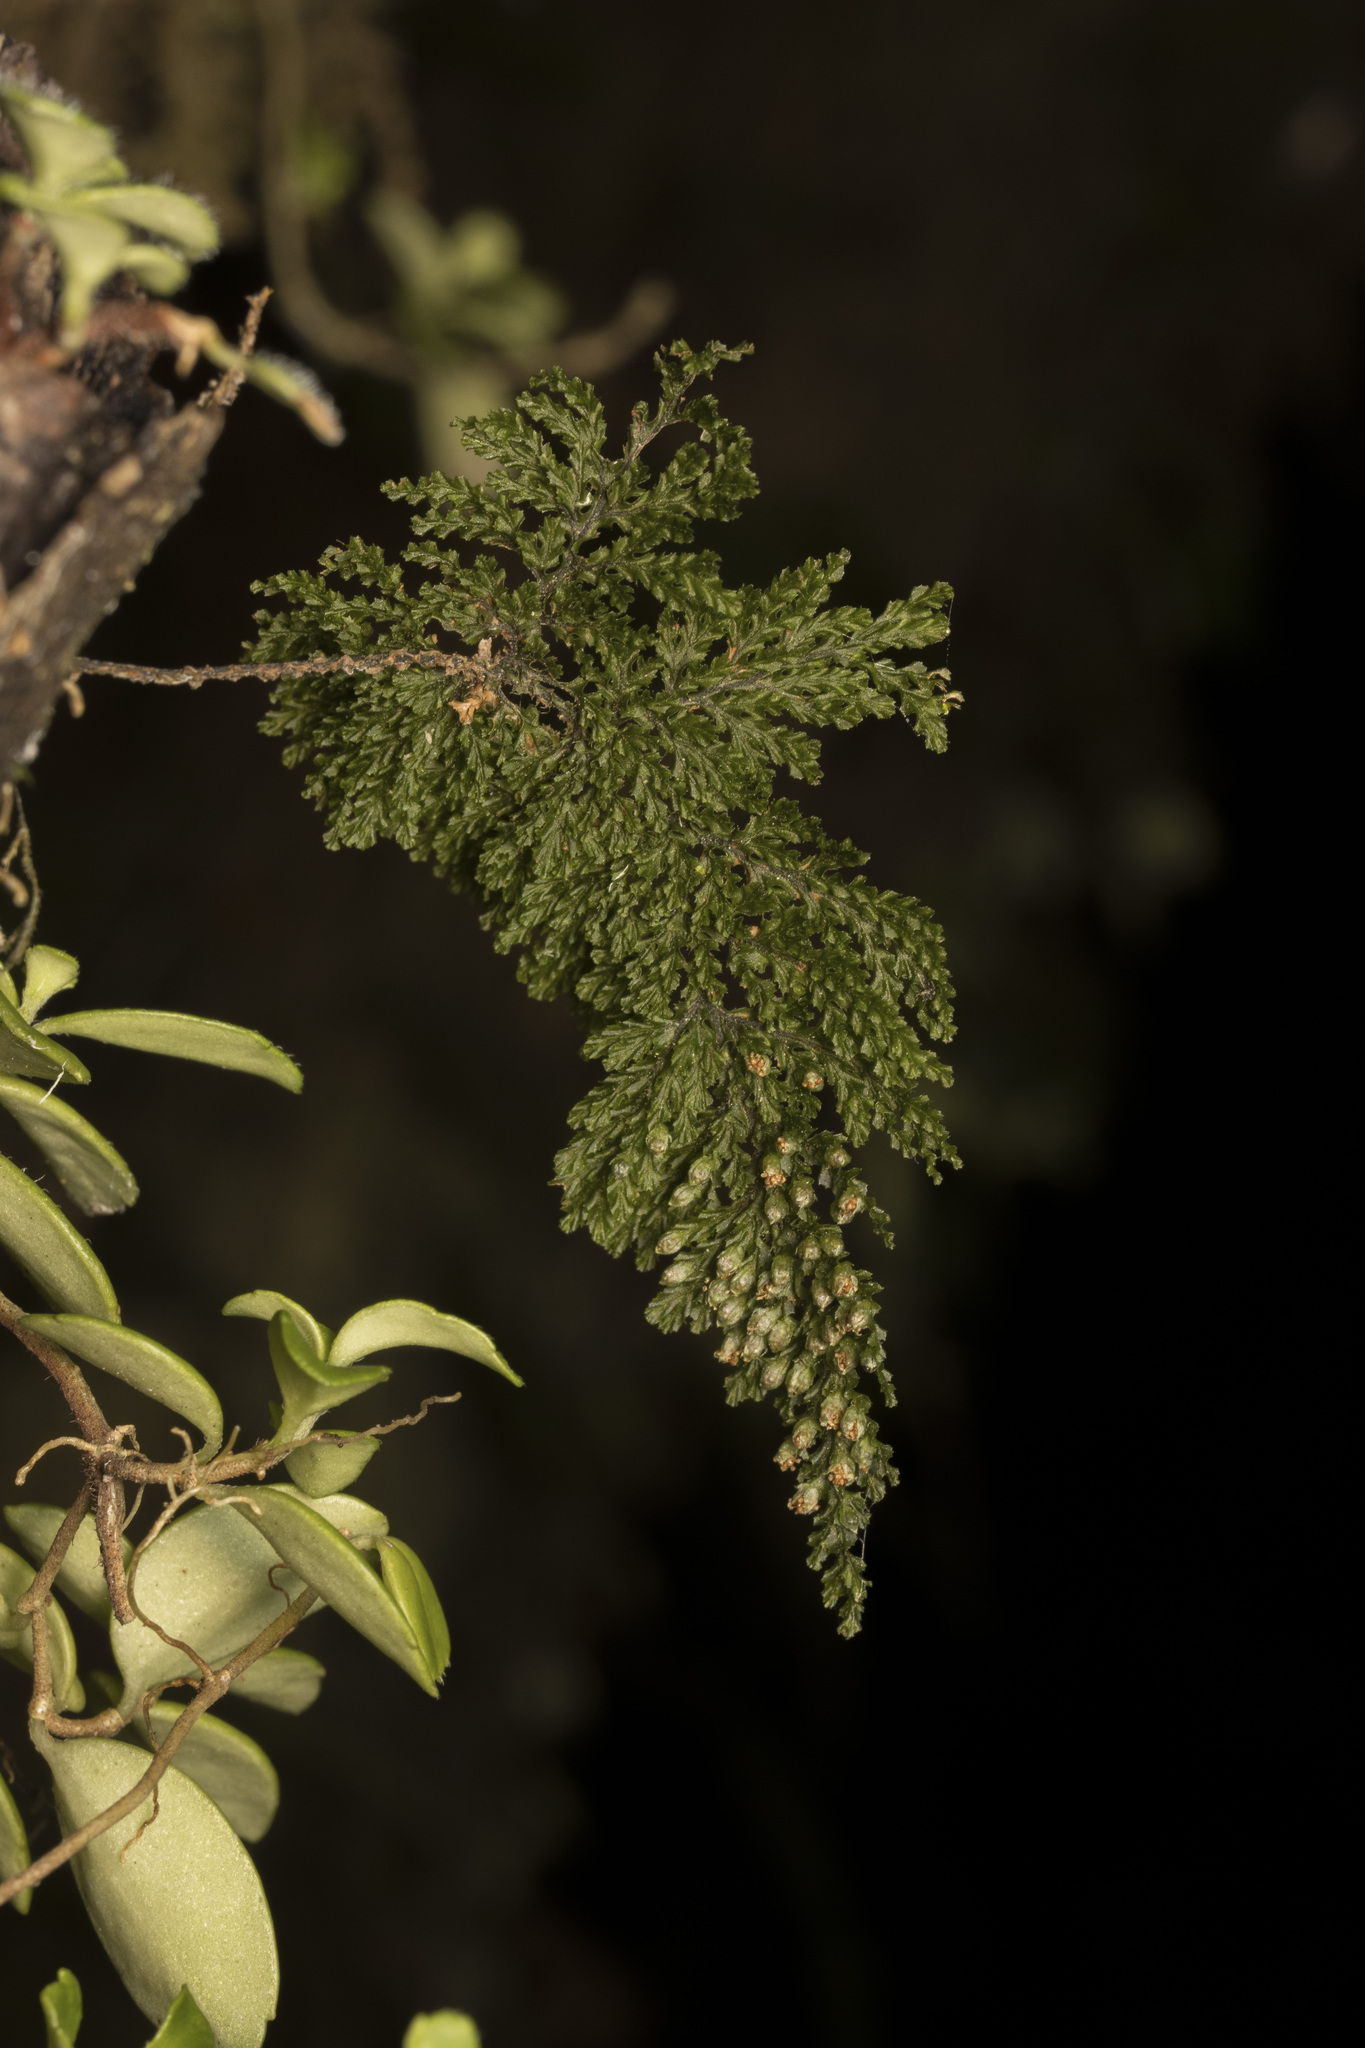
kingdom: Plantae
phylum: Tracheophyta
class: Polypodiopsida
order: Hymenophyllales
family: Hymenophyllaceae
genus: Hymenophyllum
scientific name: Hymenophyllum plicatum
